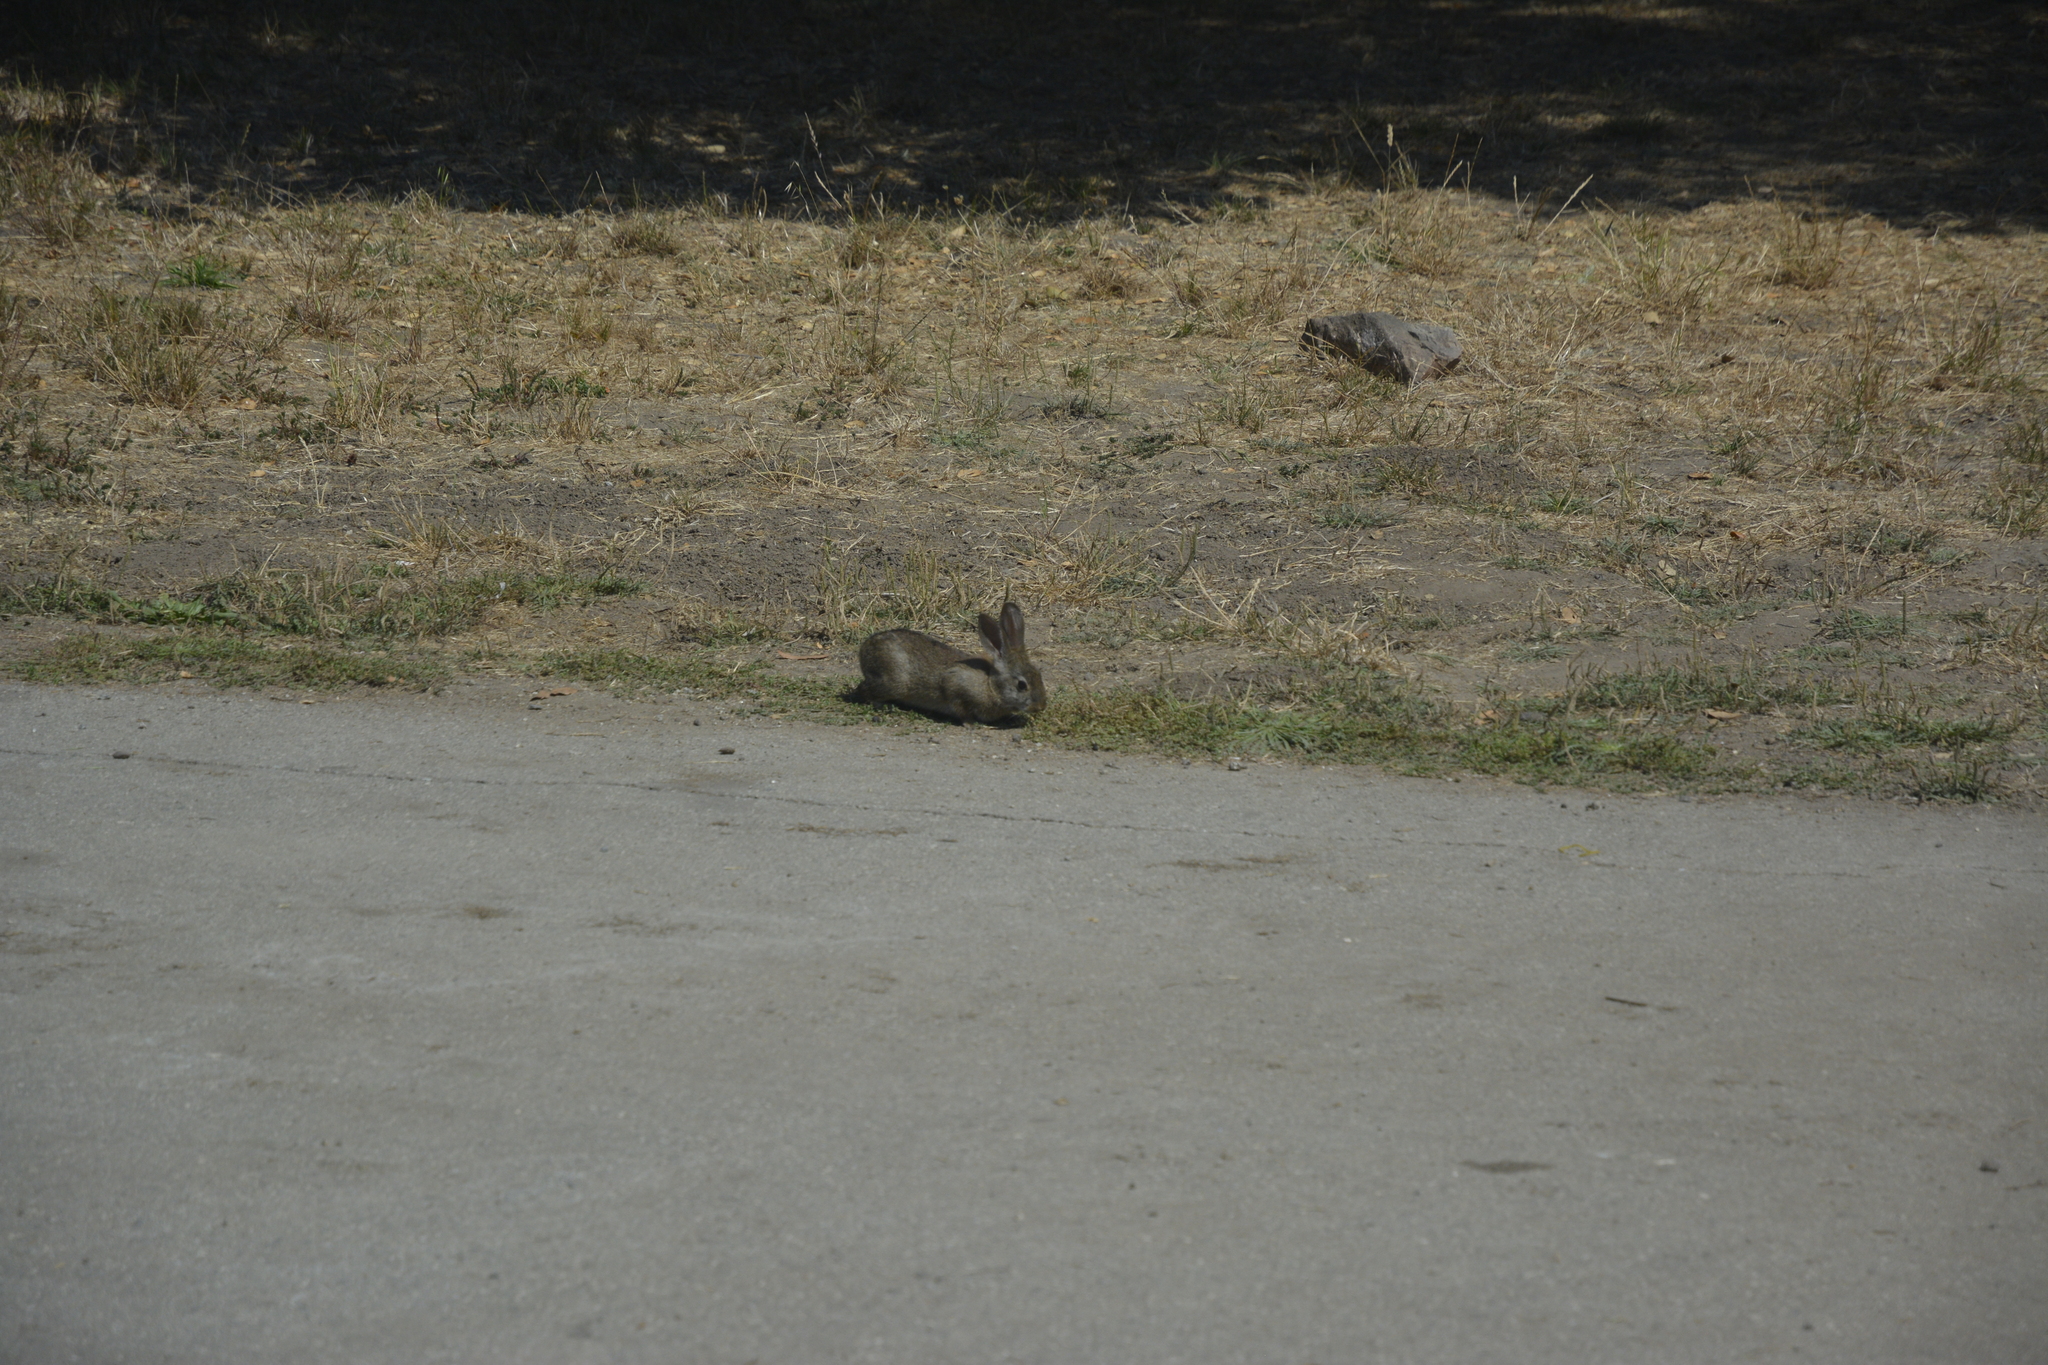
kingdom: Animalia
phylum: Chordata
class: Mammalia
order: Lagomorpha
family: Leporidae
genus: Sylvilagus
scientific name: Sylvilagus bachmani
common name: Brush rabbit
